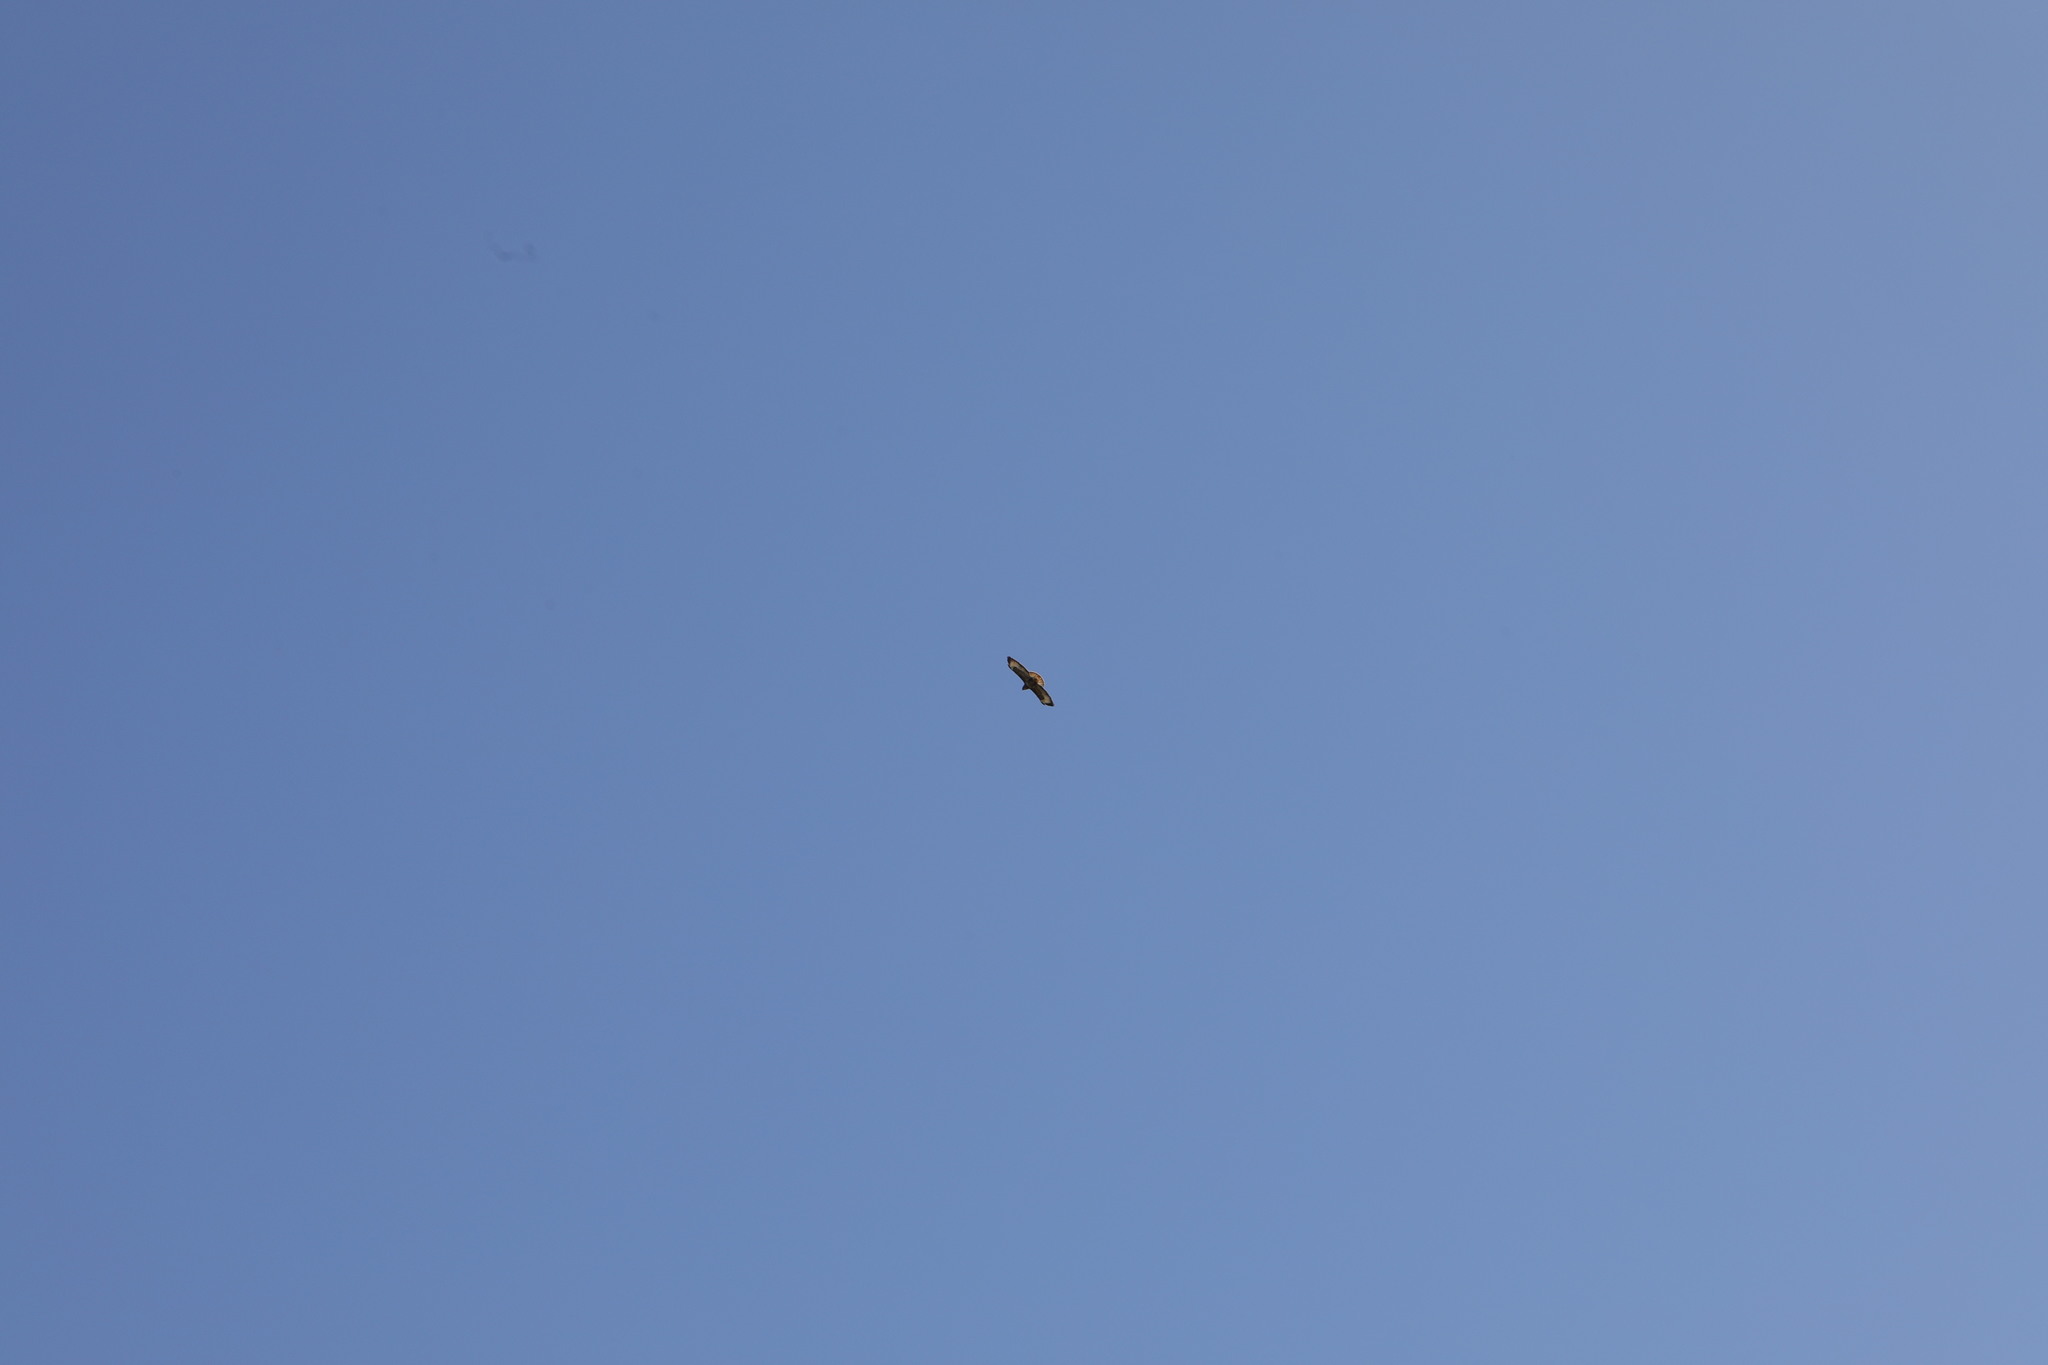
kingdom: Animalia
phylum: Chordata
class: Aves
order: Accipitriformes
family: Accipitridae
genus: Buteo
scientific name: Buteo buteo
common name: Common buzzard
